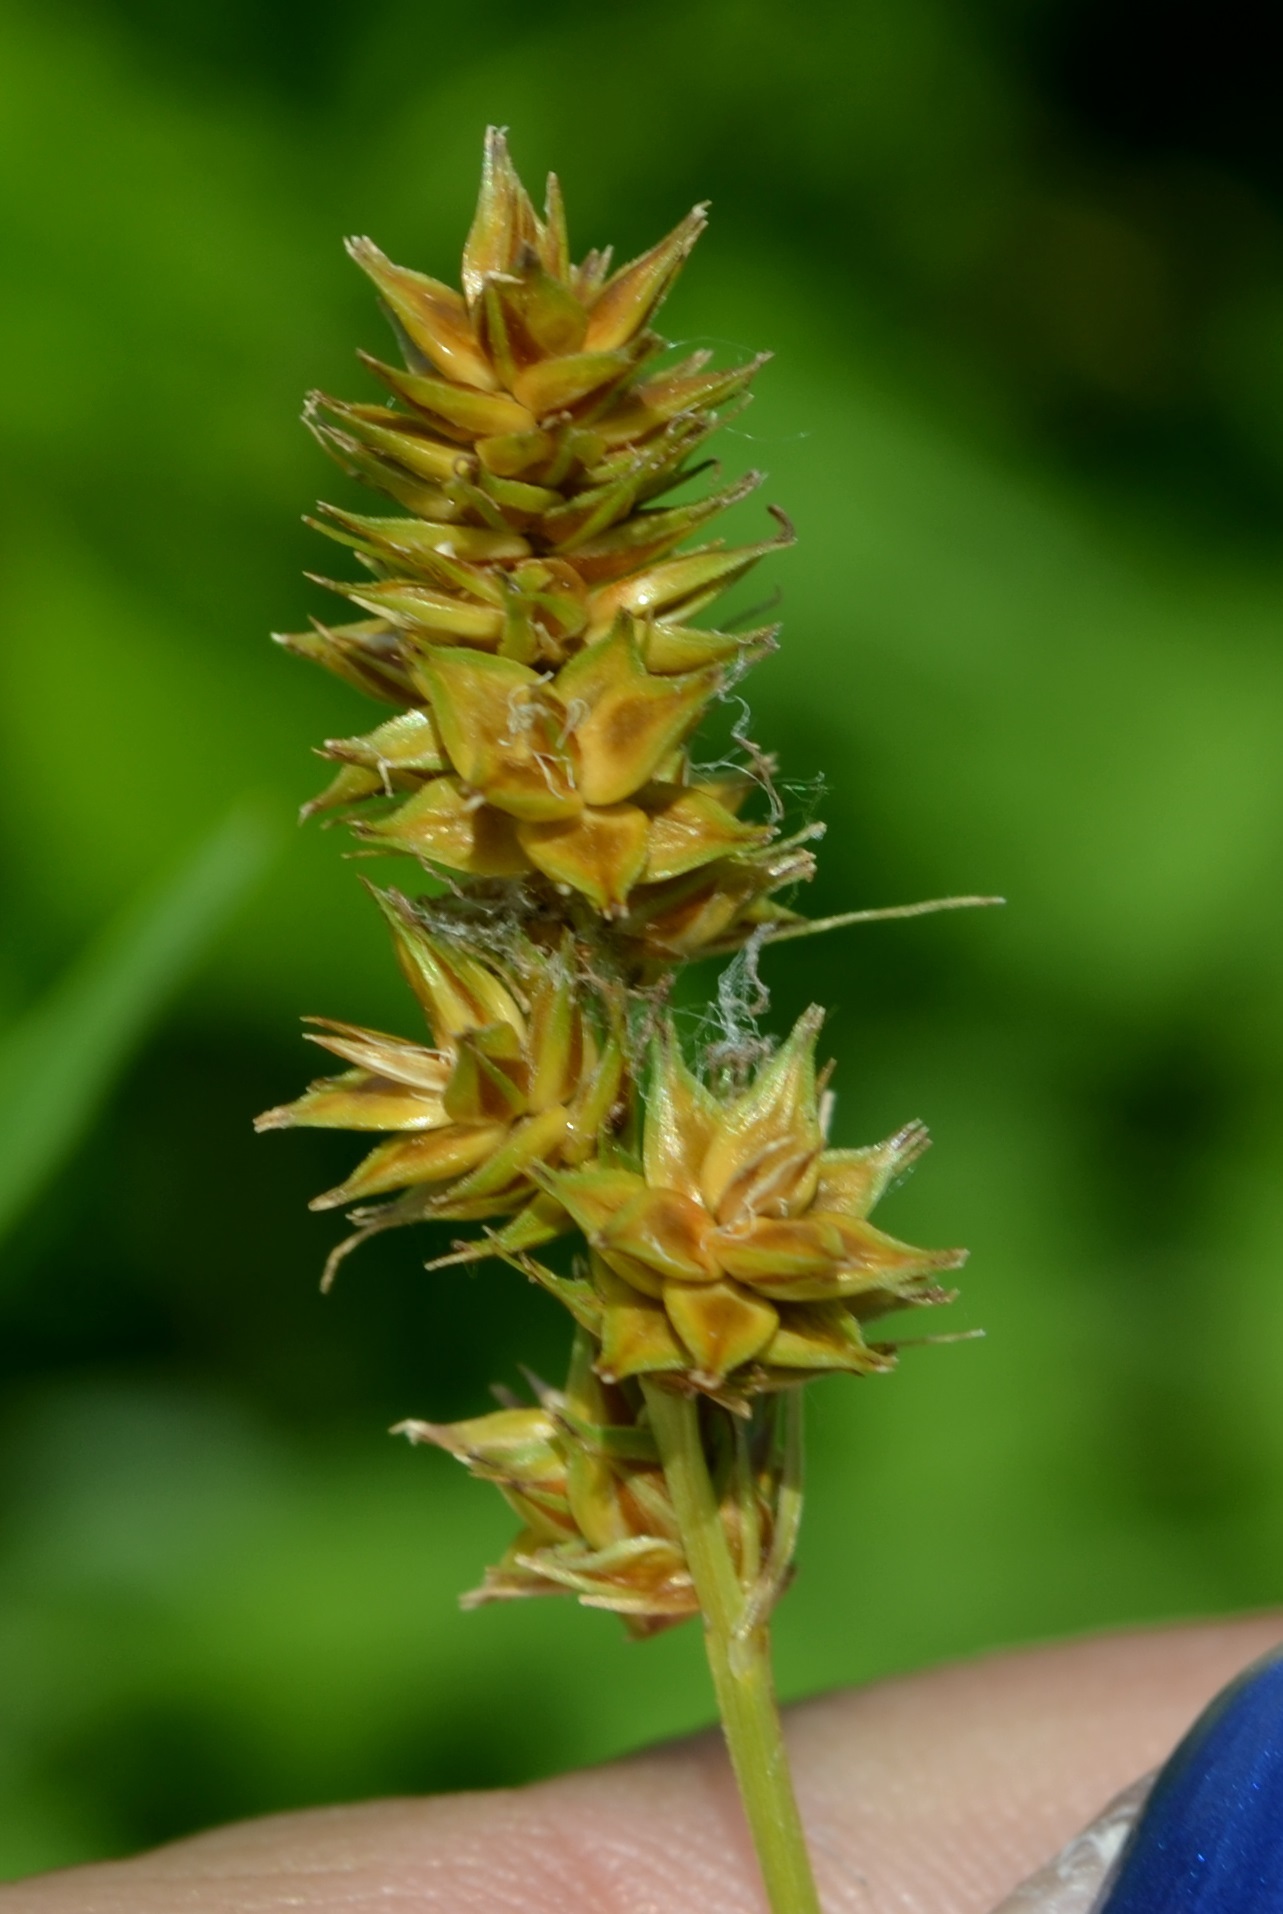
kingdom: Plantae
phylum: Tracheophyta
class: Liliopsida
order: Poales
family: Cyperaceae
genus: Carex
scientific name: Carex gravida
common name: Heavy sedge
